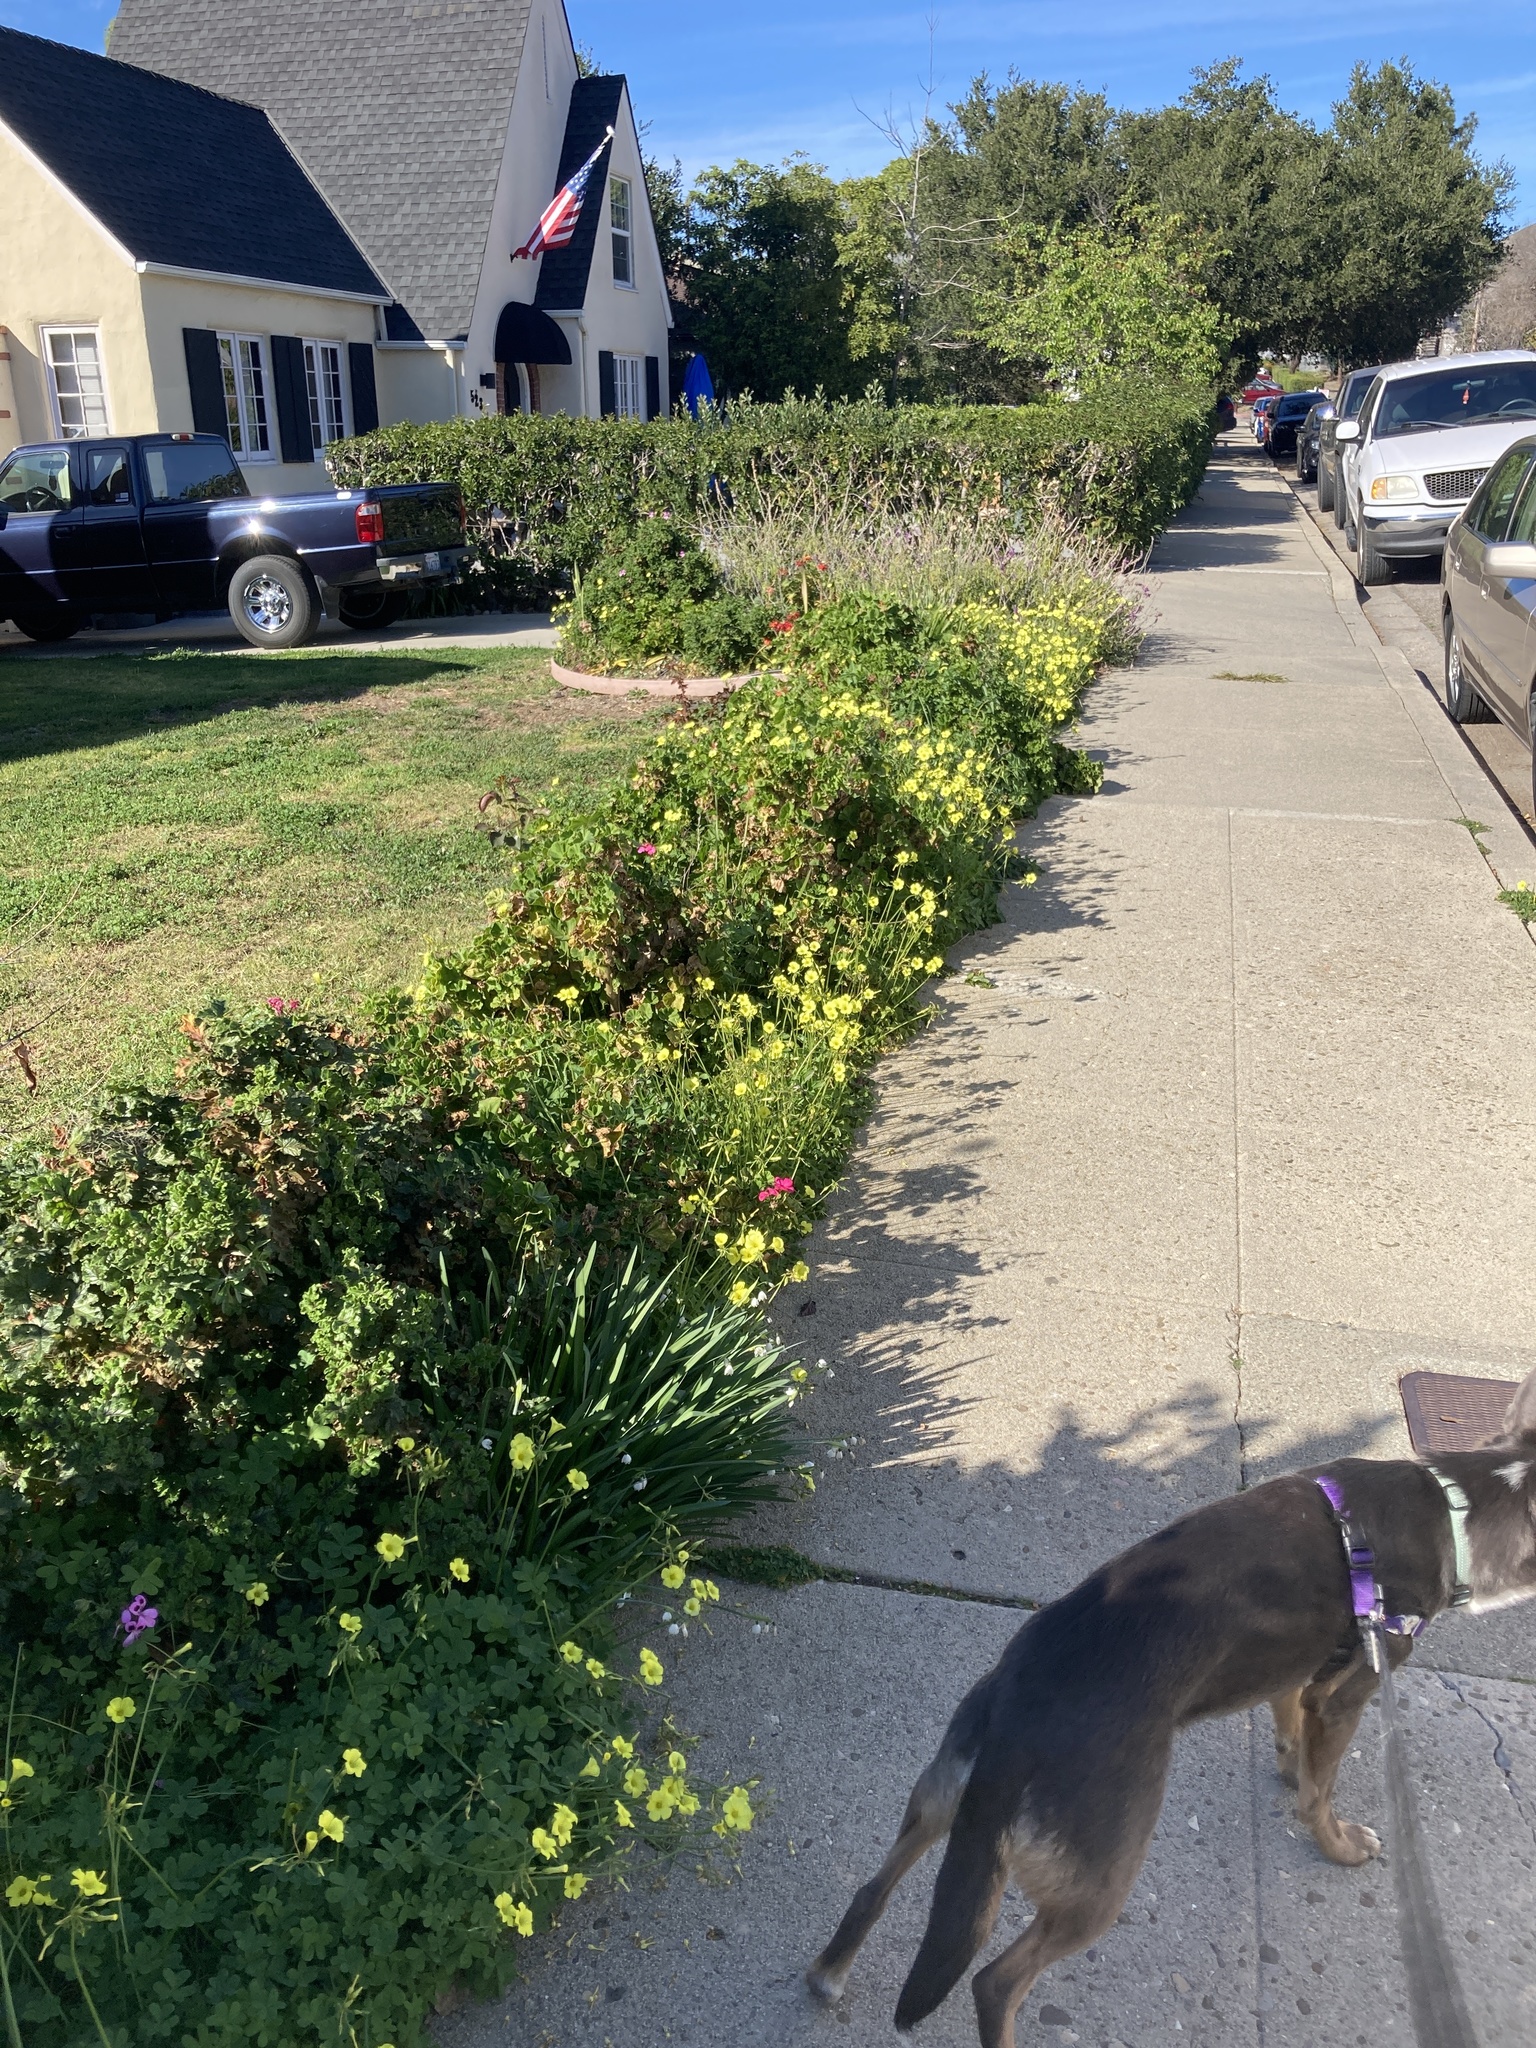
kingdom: Plantae
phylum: Tracheophyta
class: Magnoliopsida
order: Oxalidales
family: Oxalidaceae
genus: Oxalis
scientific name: Oxalis pes-caprae
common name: Bermuda-buttercup
